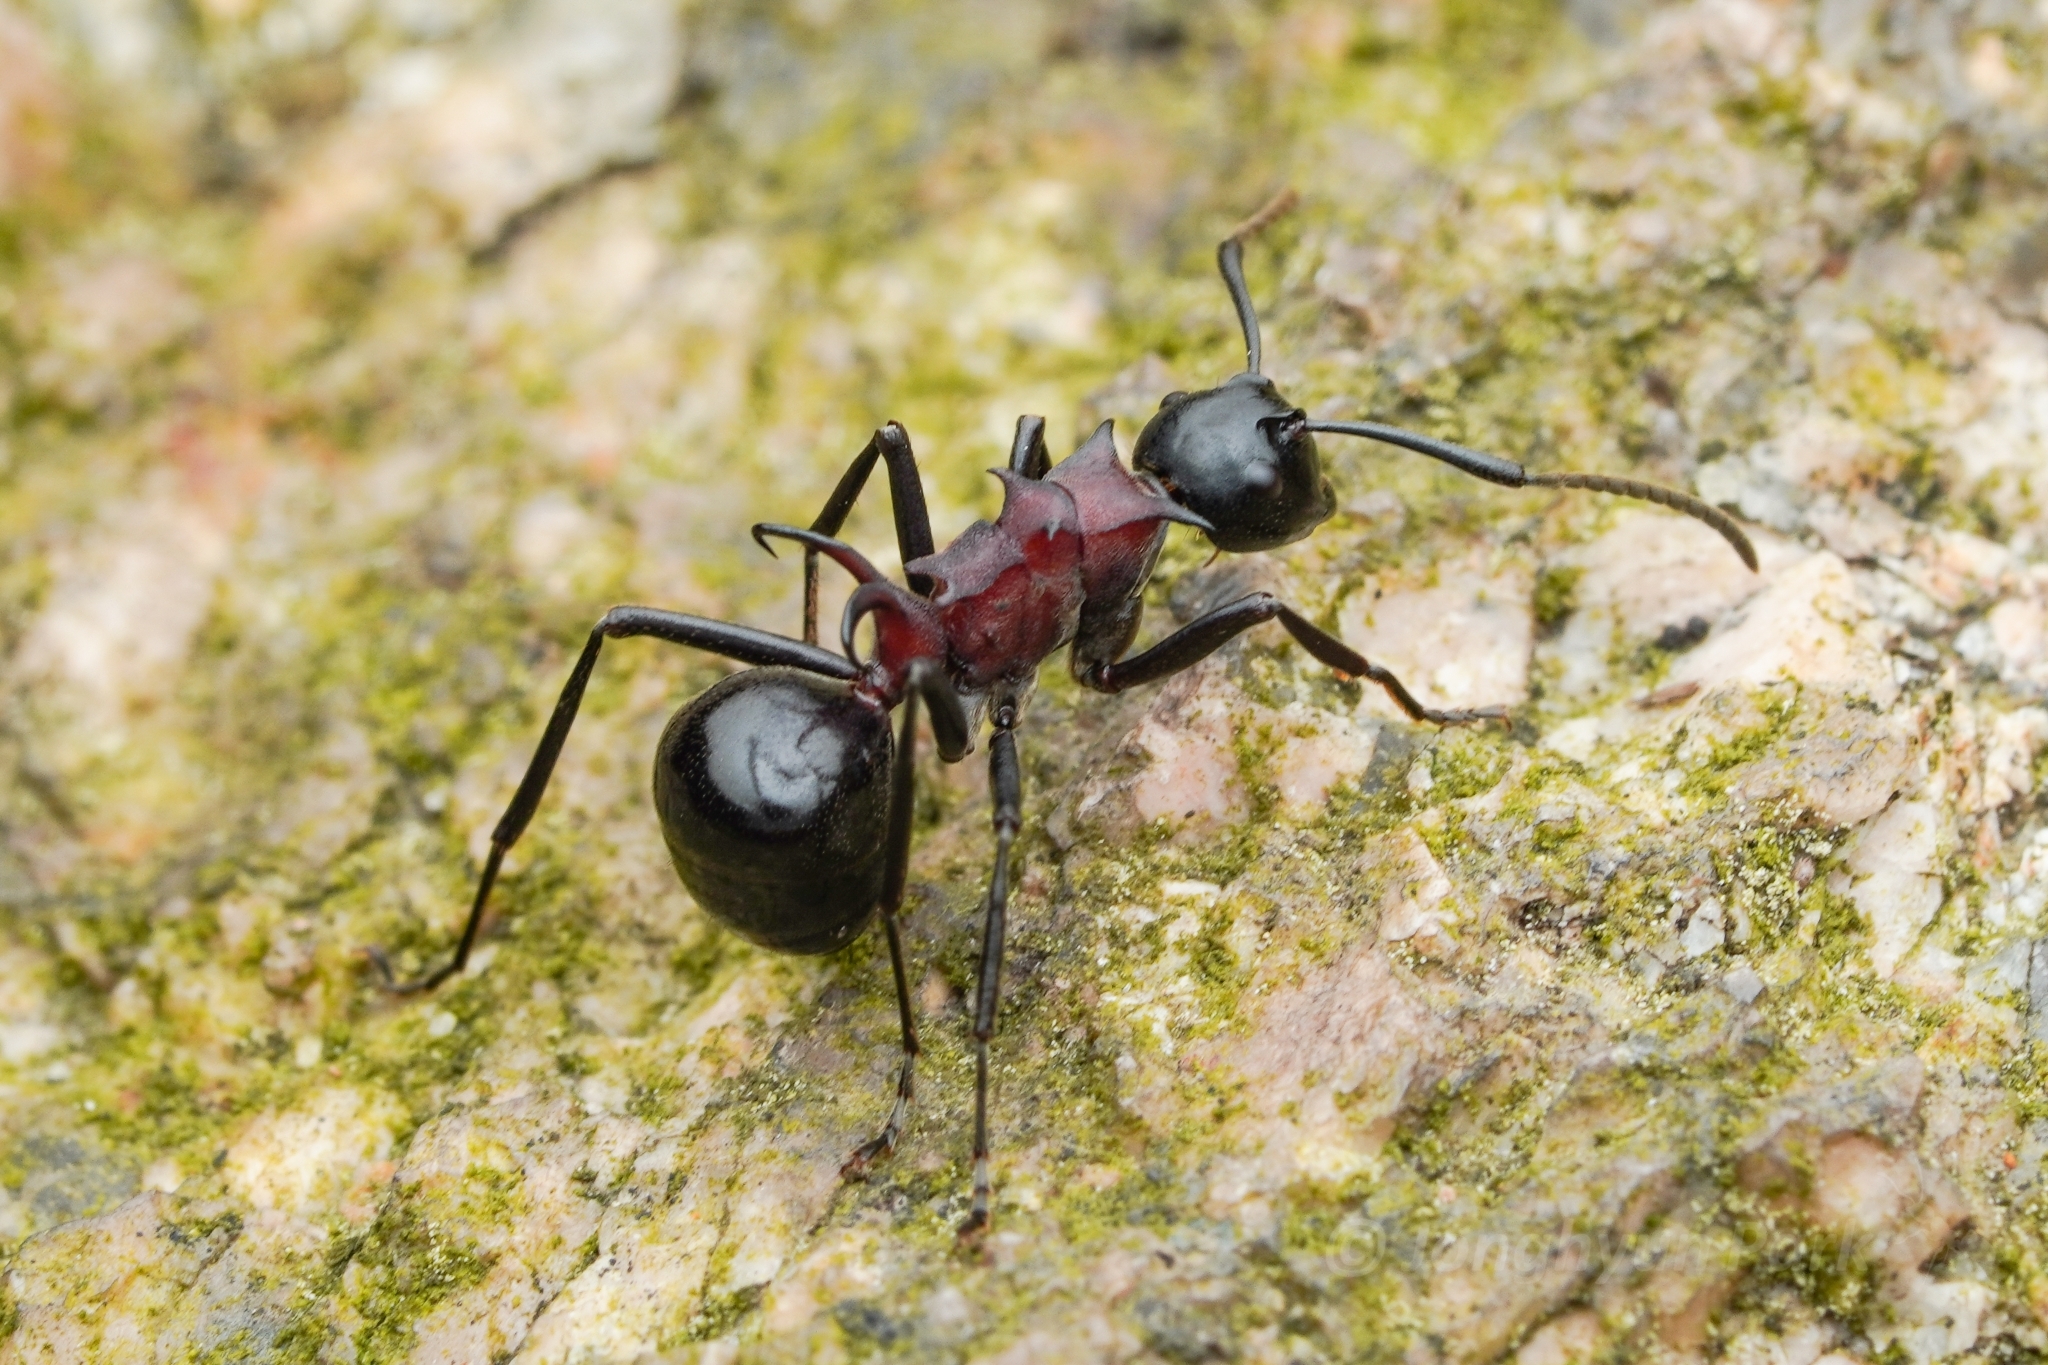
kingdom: Animalia
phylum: Arthropoda
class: Insecta
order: Hymenoptera
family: Formicidae
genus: Polyrhachis
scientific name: Polyrhachis lamellidens
